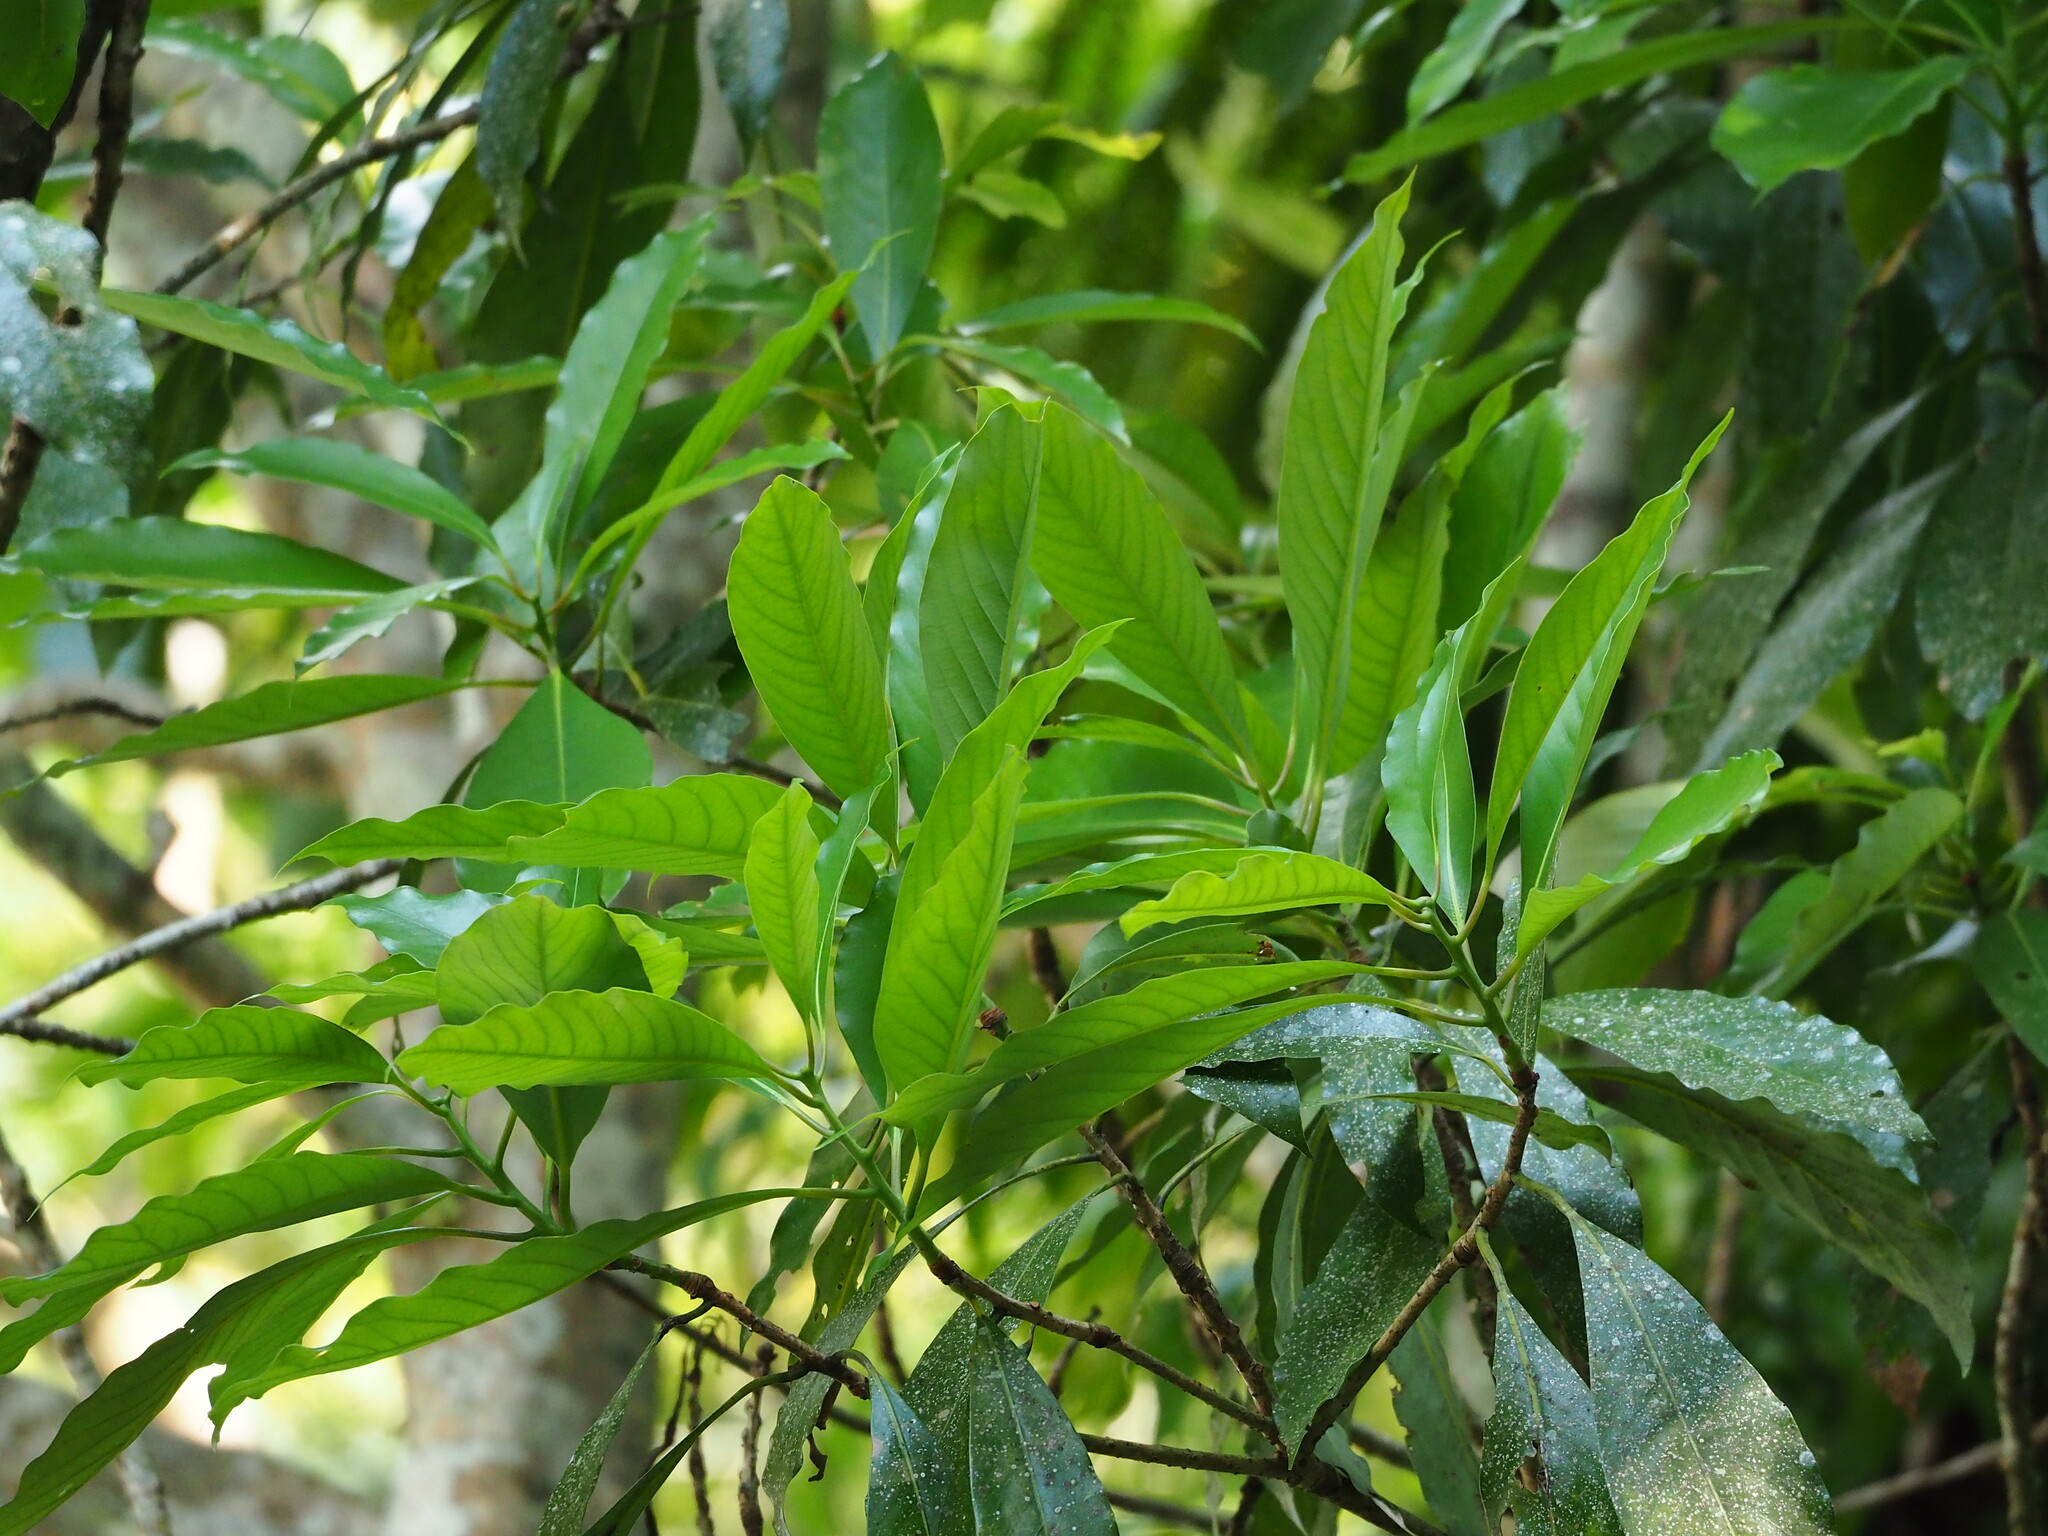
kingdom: Plantae
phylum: Tracheophyta
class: Magnoliopsida
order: Laurales
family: Lauraceae
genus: Machilus
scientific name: Machilus japonica
